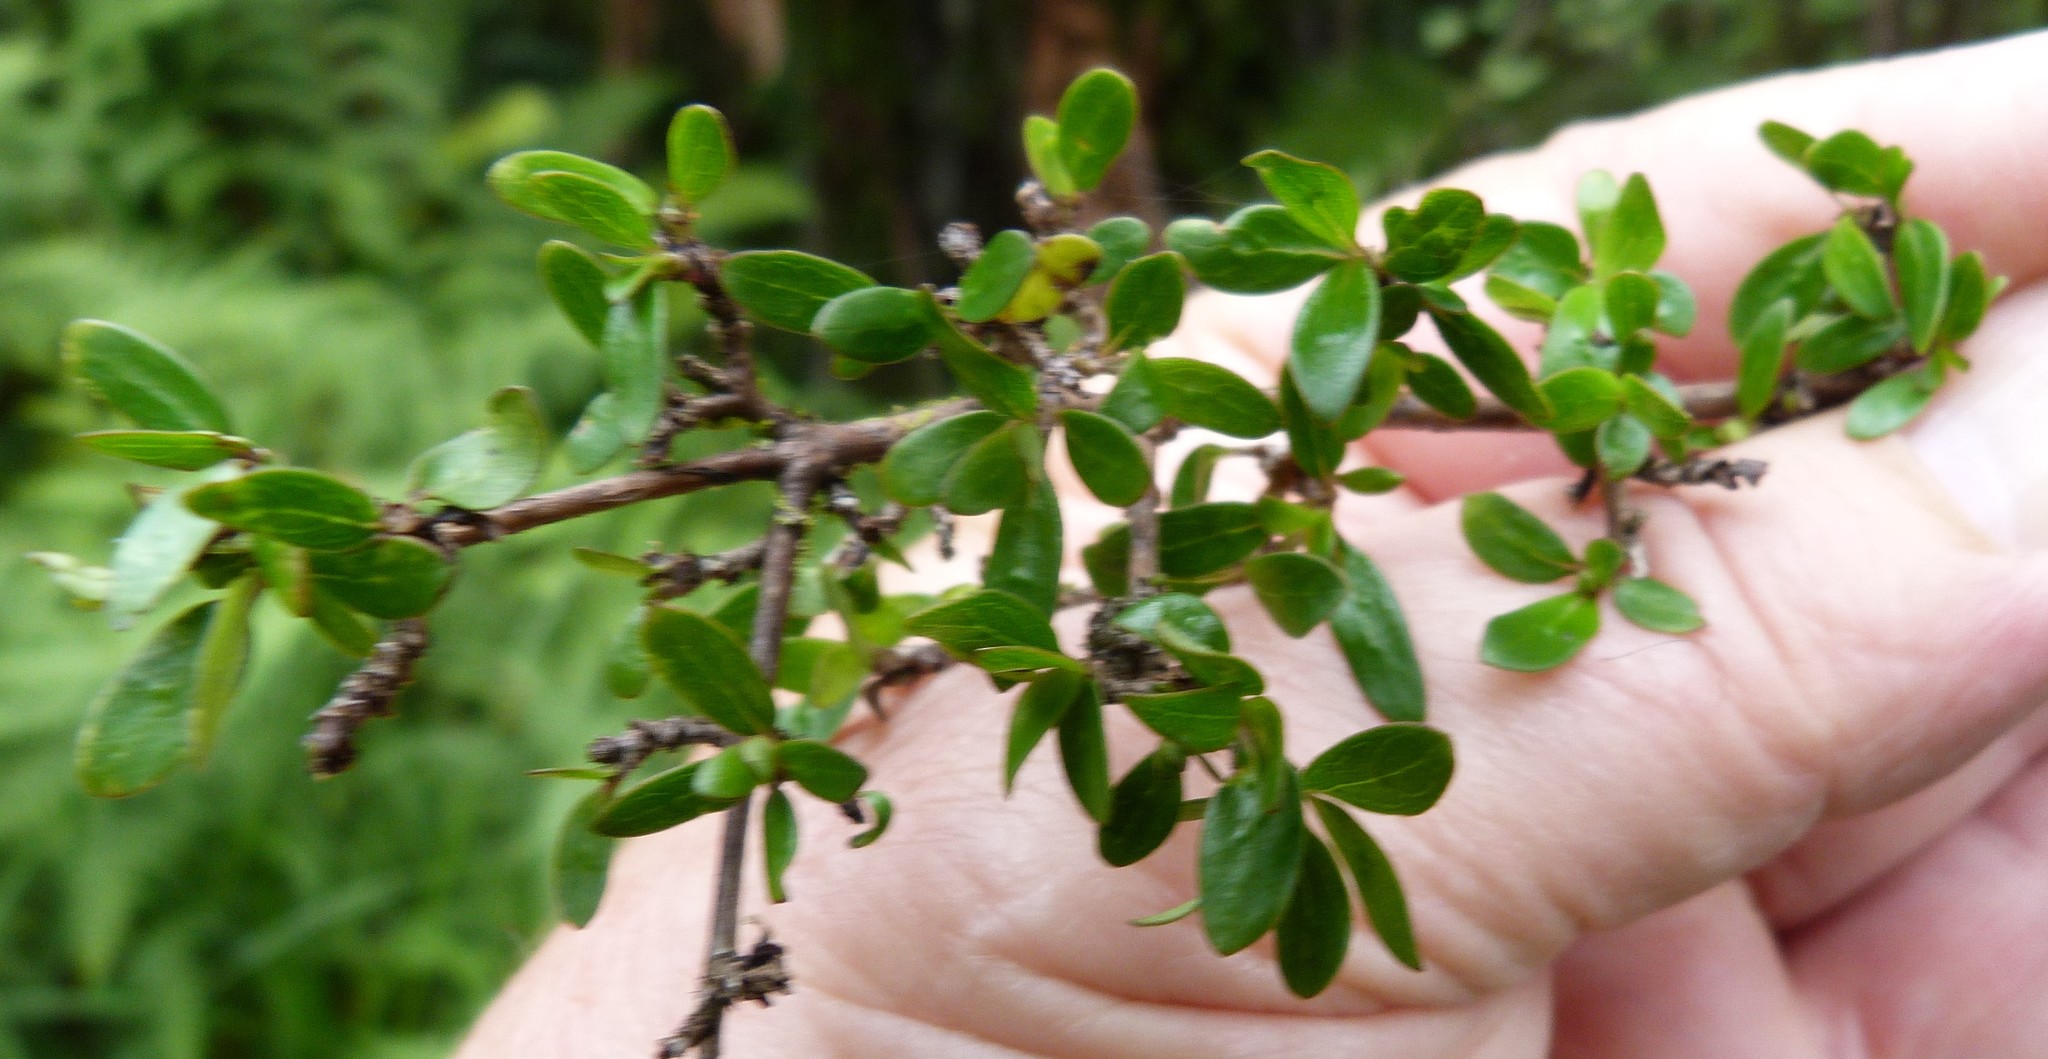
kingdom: Plantae
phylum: Tracheophyta
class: Magnoliopsida
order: Gentianales
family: Rubiaceae
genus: Coprosma
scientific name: Coprosma propinqua
